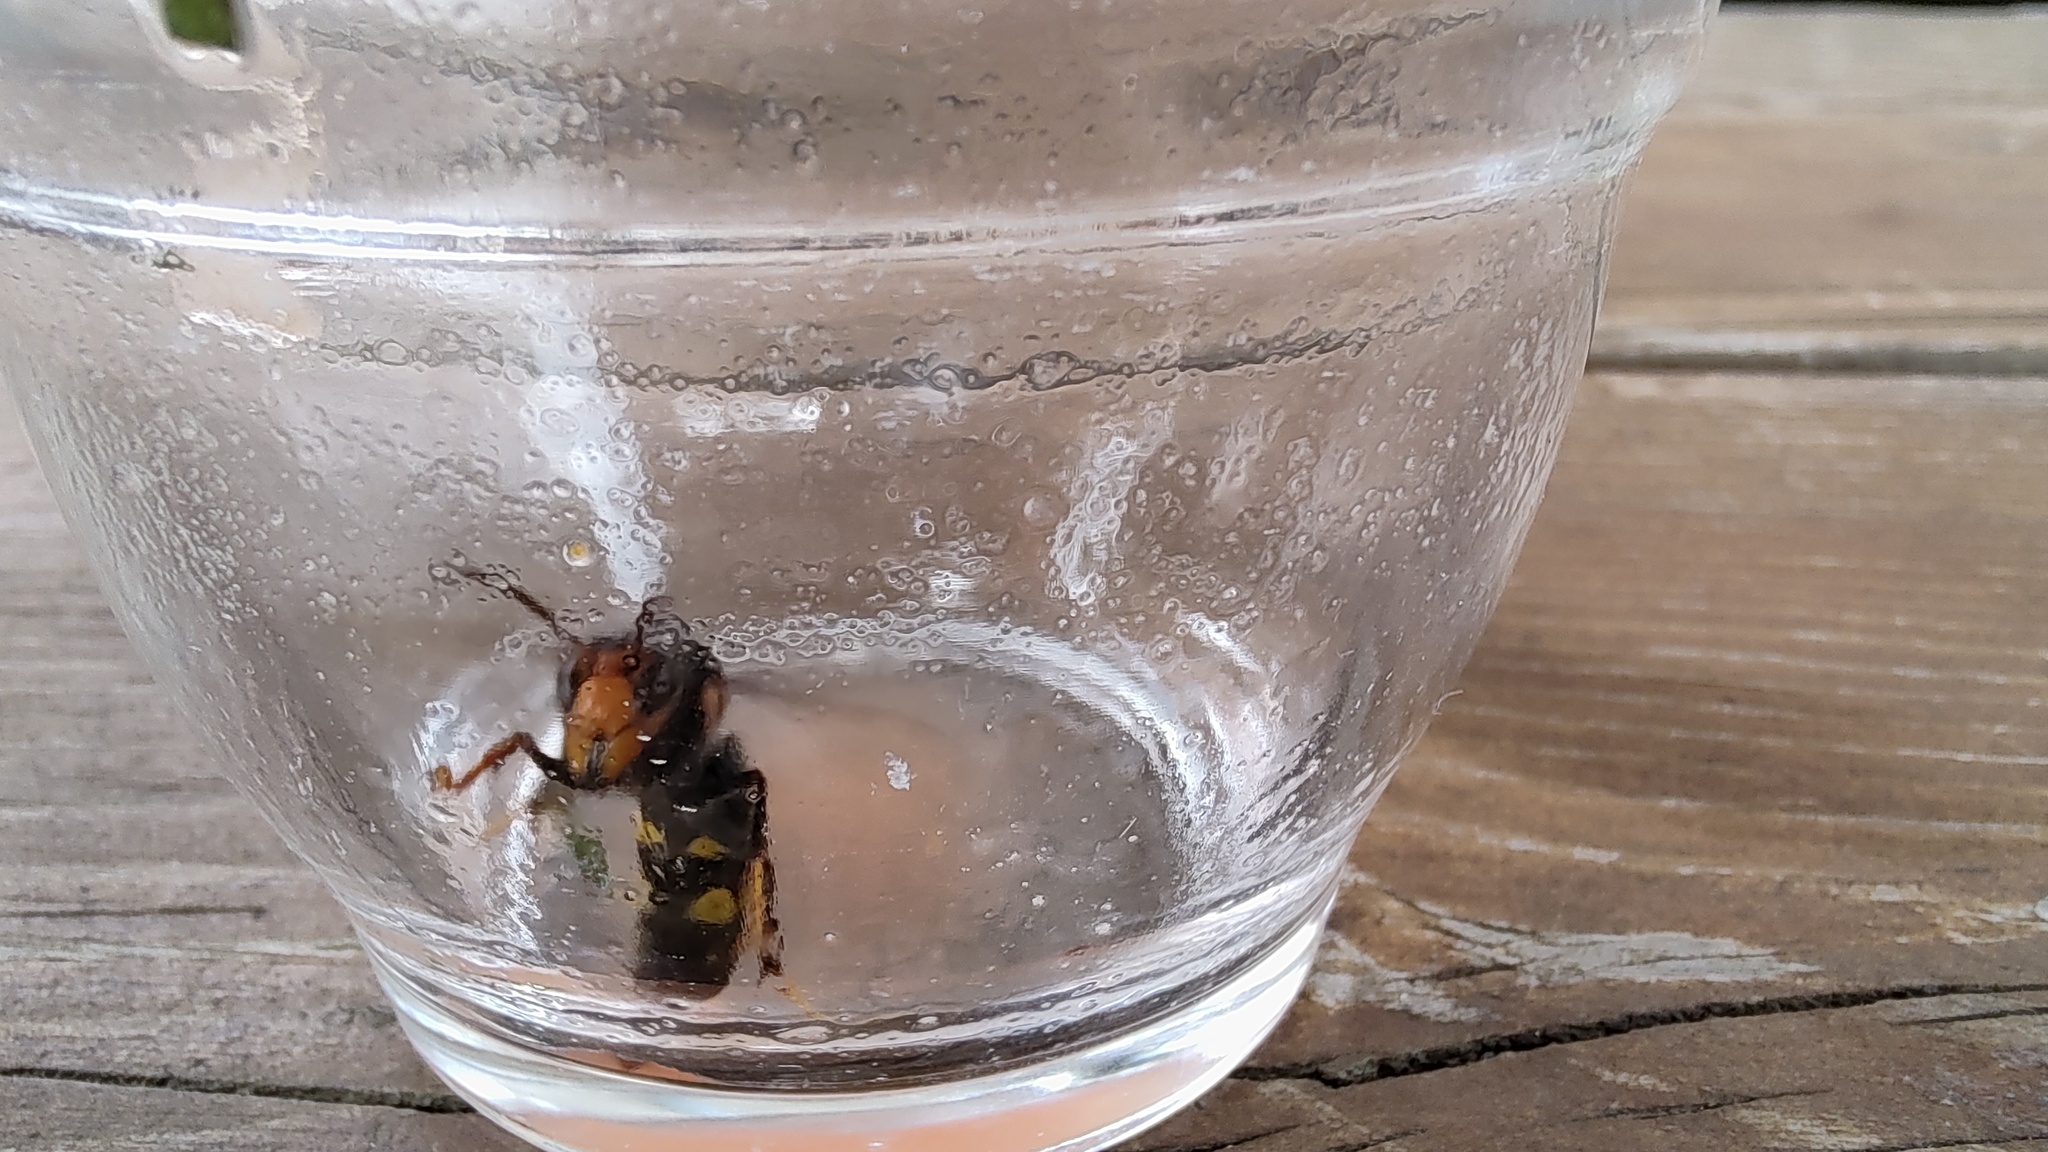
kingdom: Animalia
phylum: Arthropoda
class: Insecta
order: Hymenoptera
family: Vespidae
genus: Vespa
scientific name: Vespa velutina
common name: Asian hornet
